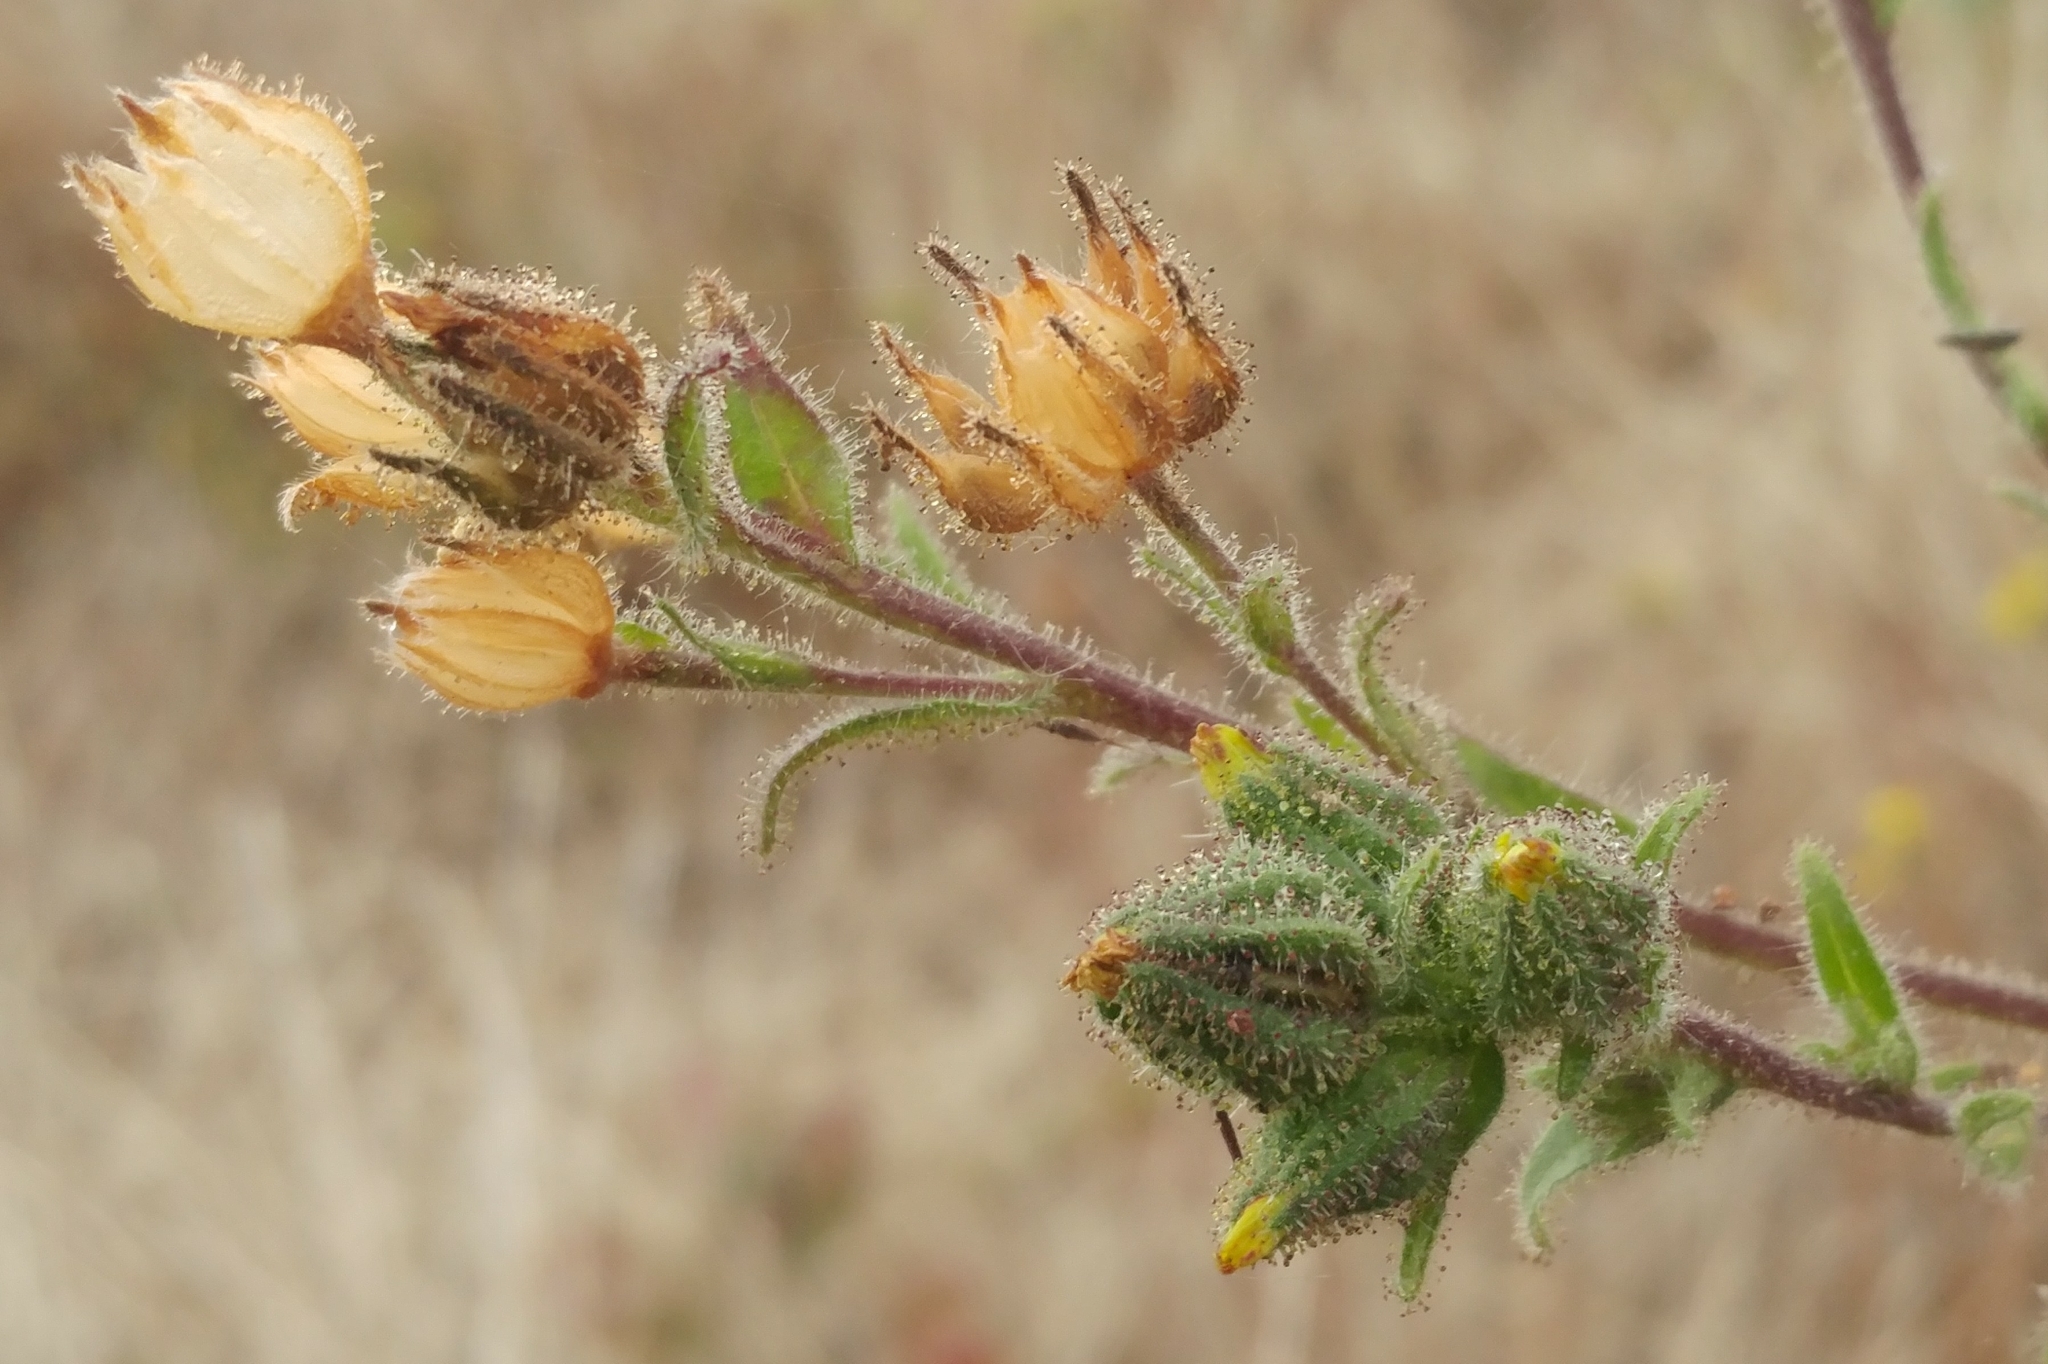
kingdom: Plantae
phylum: Tracheophyta
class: Magnoliopsida
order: Asterales
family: Asteraceae
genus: Madia
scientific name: Madia gracilis
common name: Grassy tarweed
